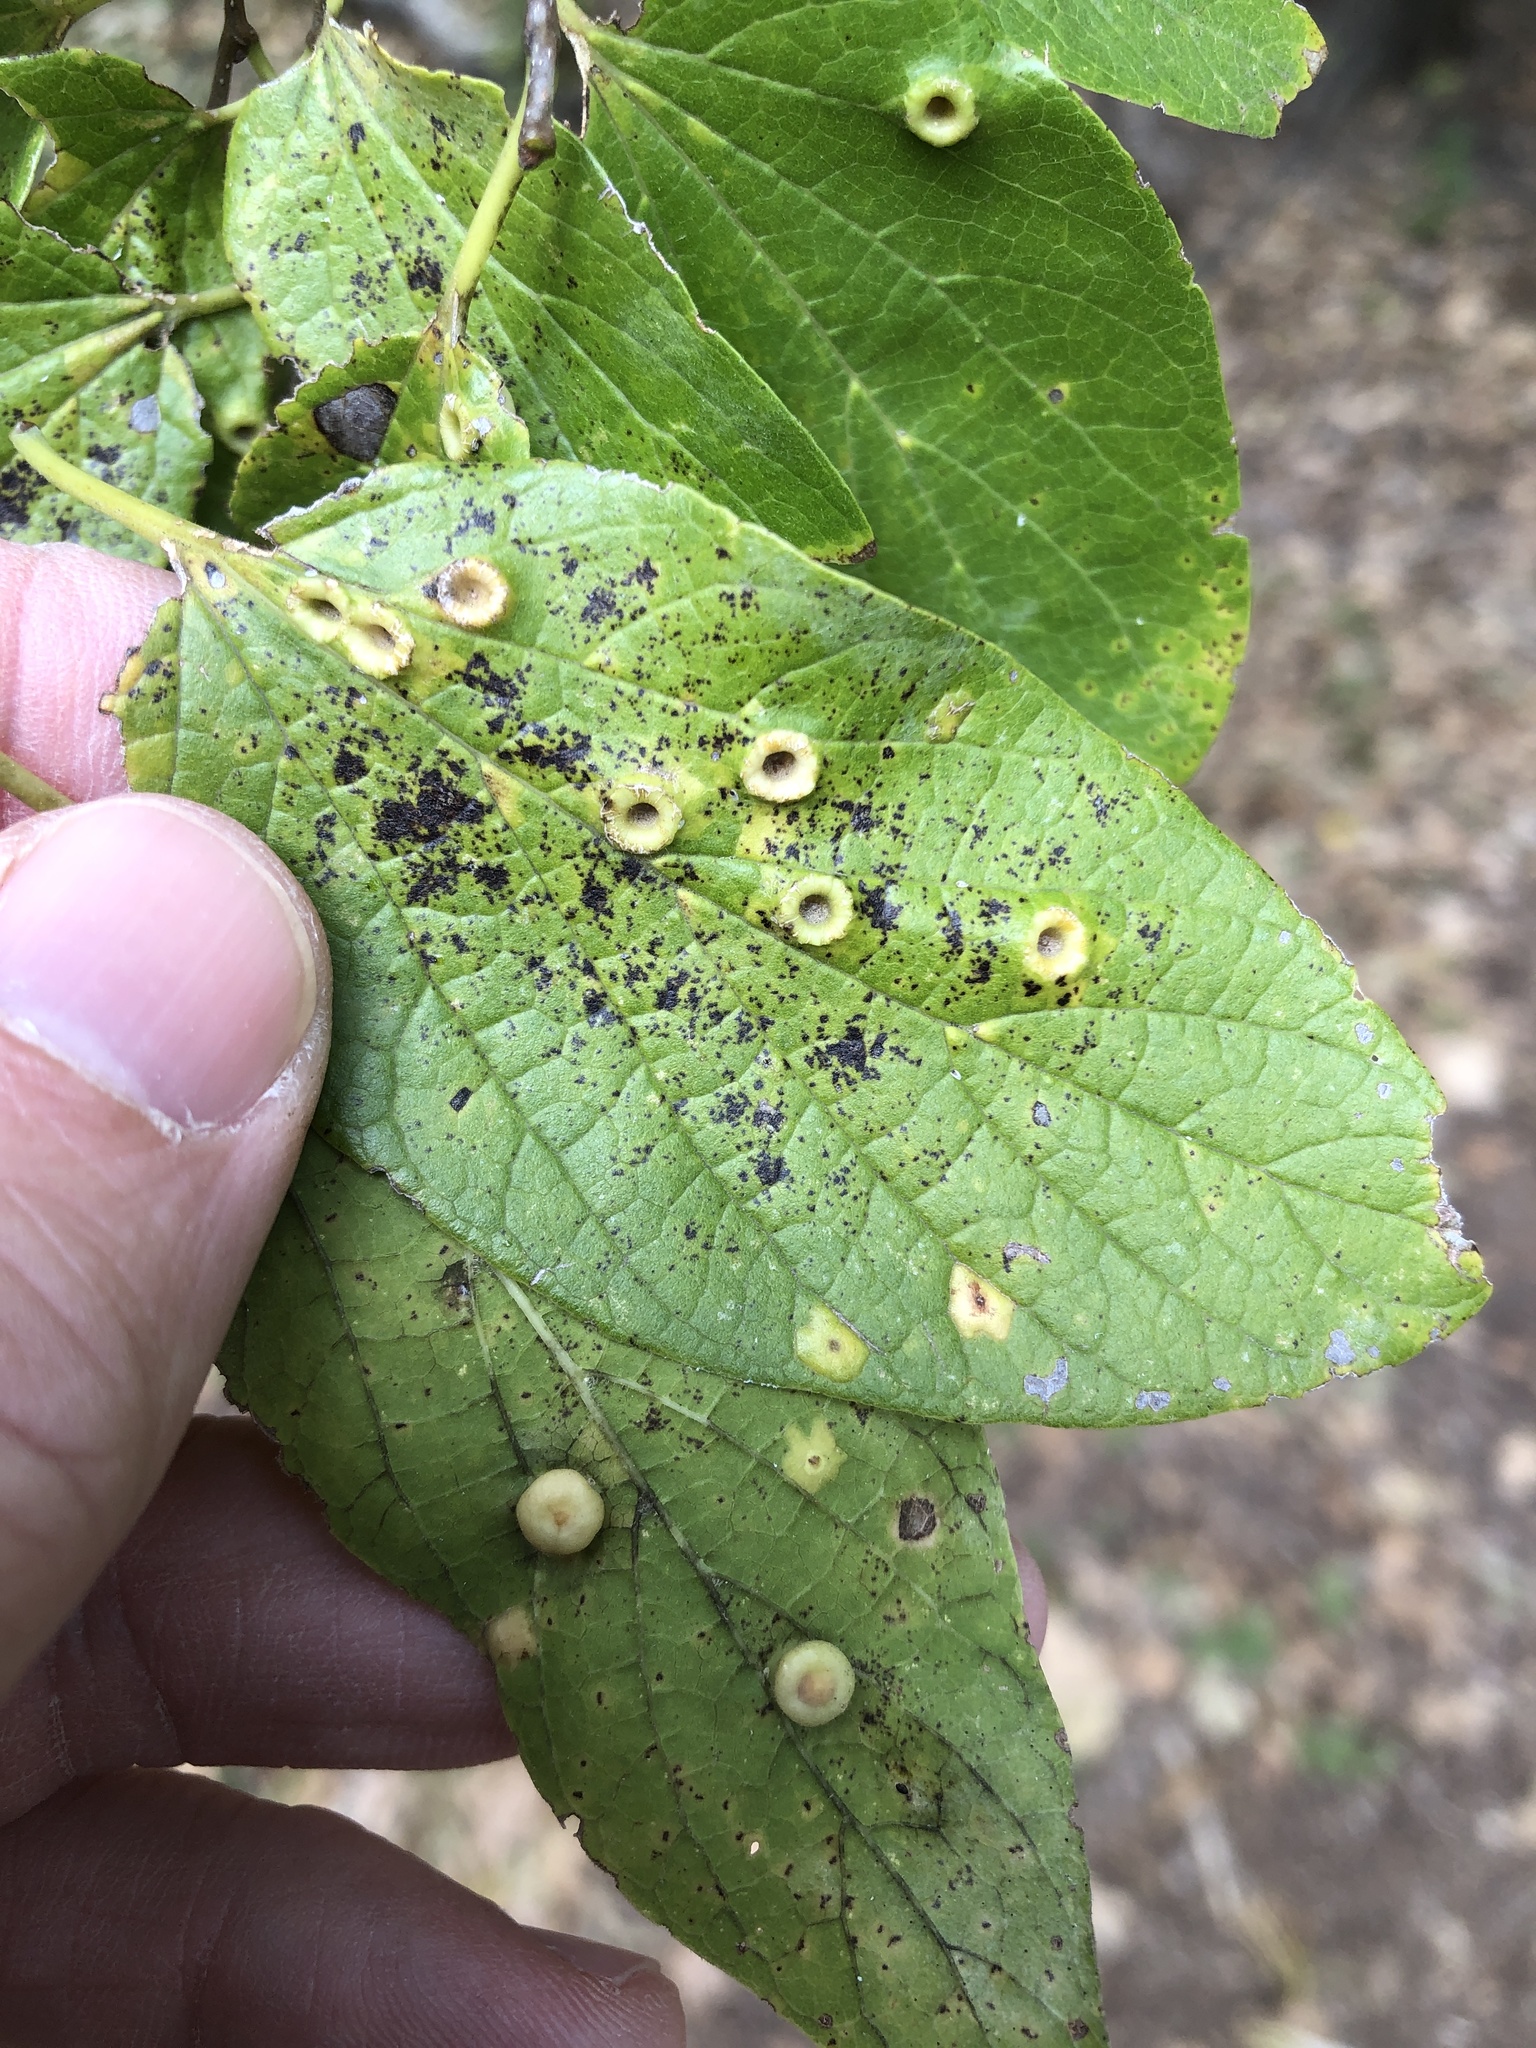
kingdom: Animalia
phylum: Arthropoda
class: Insecta
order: Hemiptera
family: Aphalaridae
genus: Pachypsylla
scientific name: Pachypsylla celtidismamma
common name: Hackberry nipplegall psyllid
